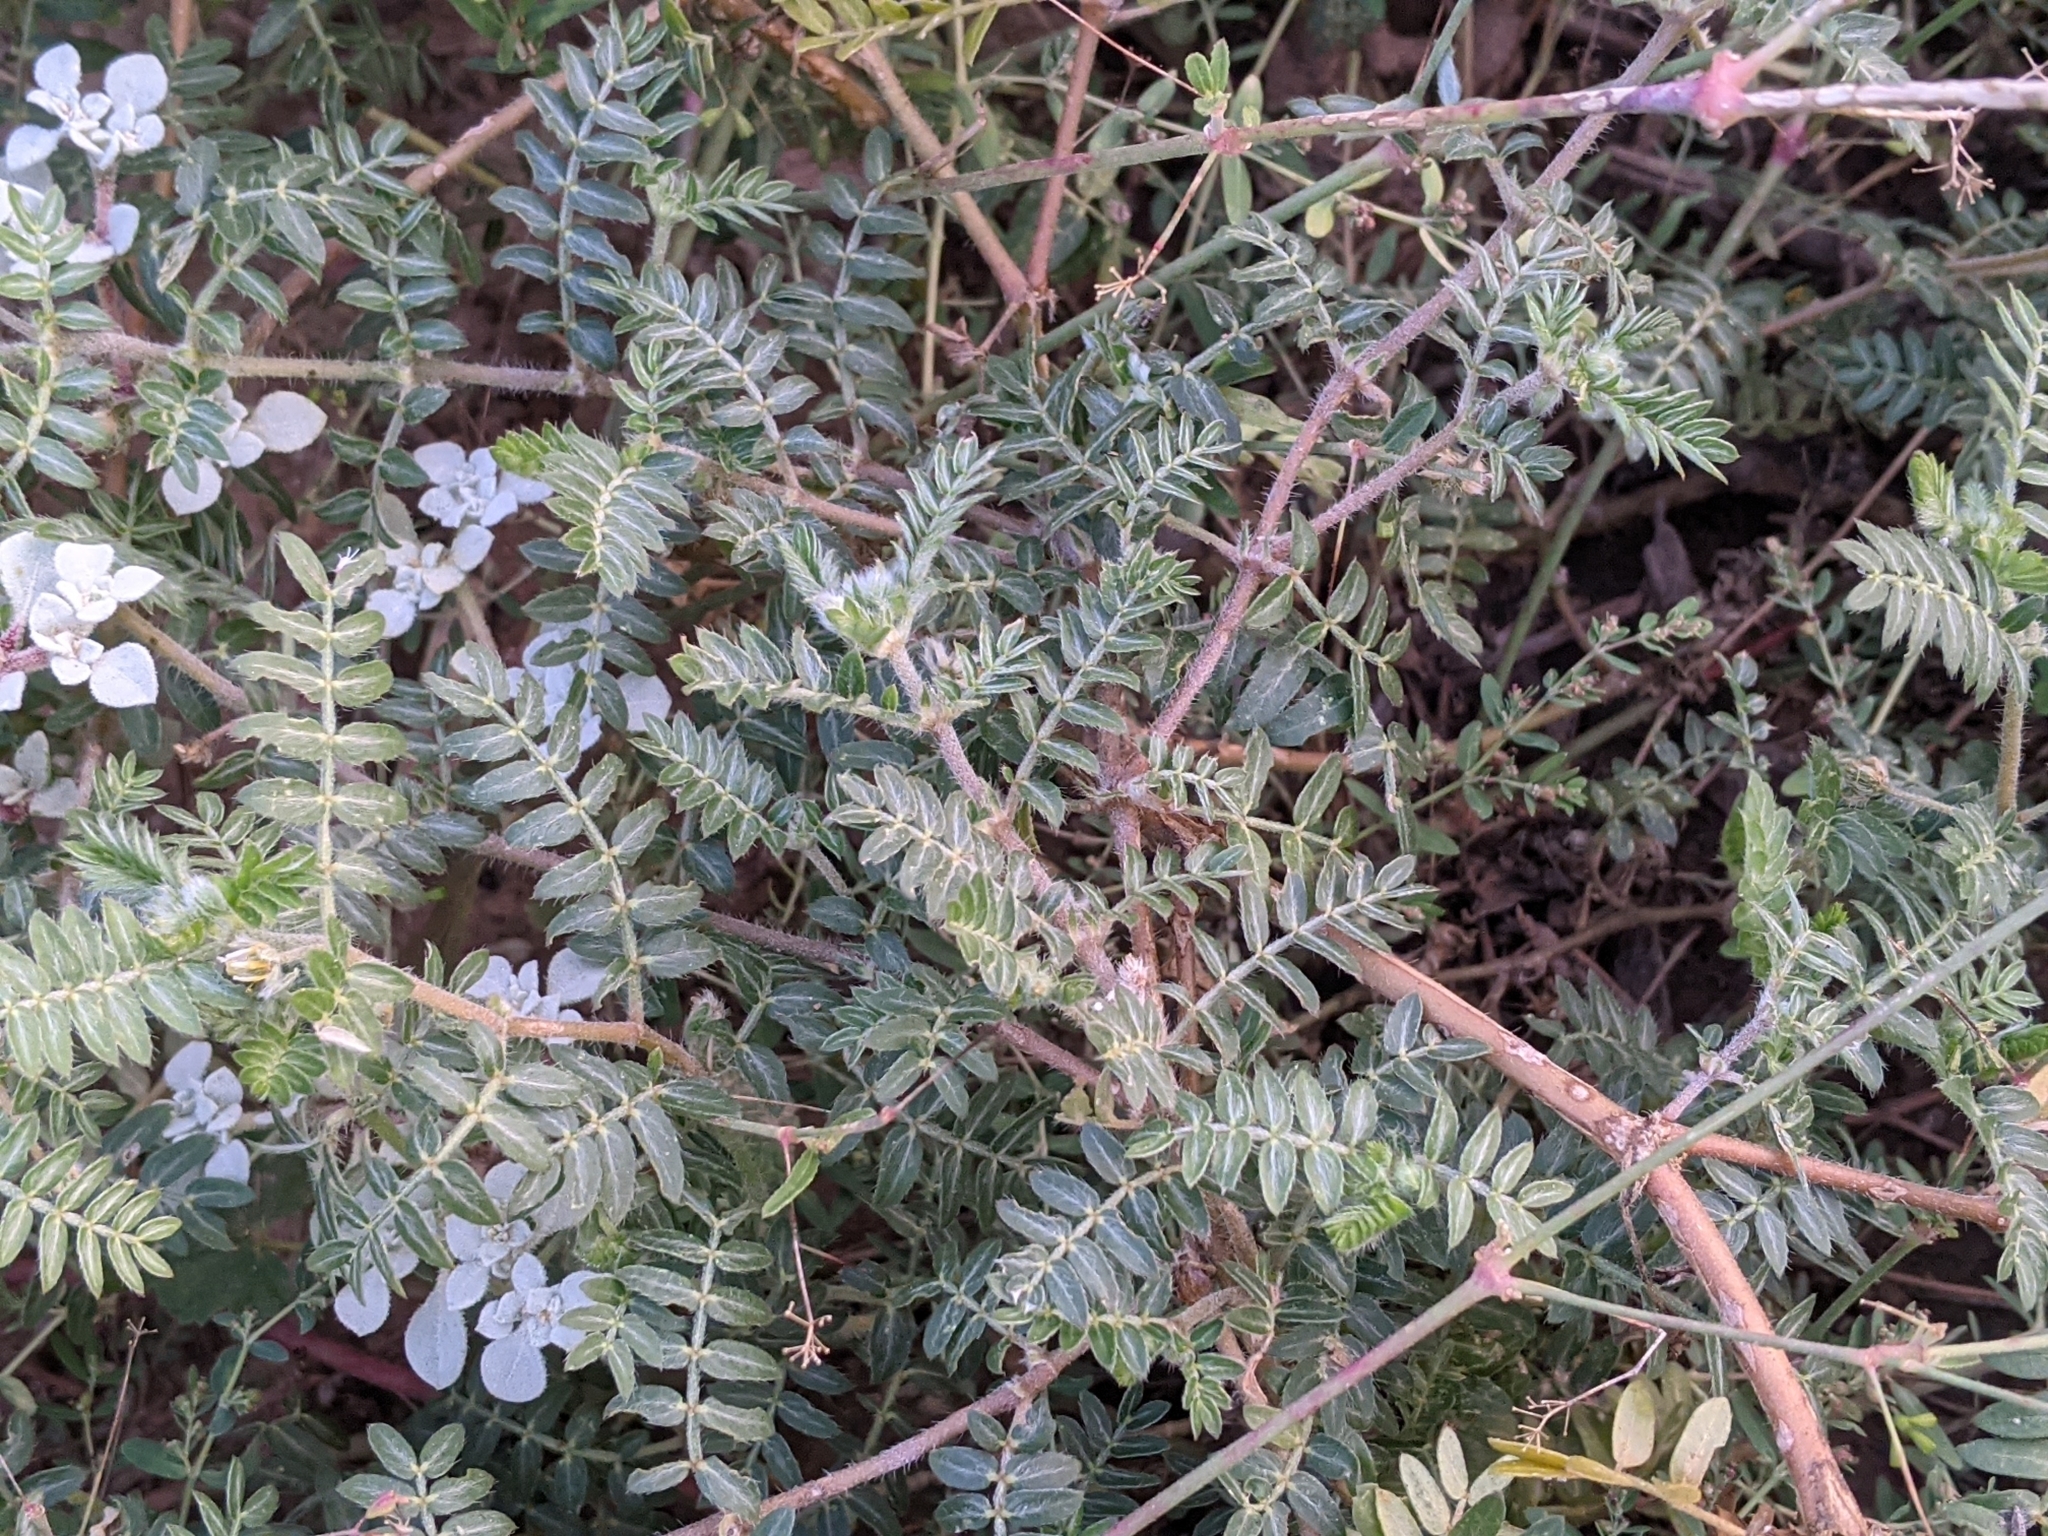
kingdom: Plantae
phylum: Tracheophyta
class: Magnoliopsida
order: Zygophyllales
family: Zygophyllaceae
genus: Tribulus
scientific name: Tribulus terrestris
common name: Puncturevine
